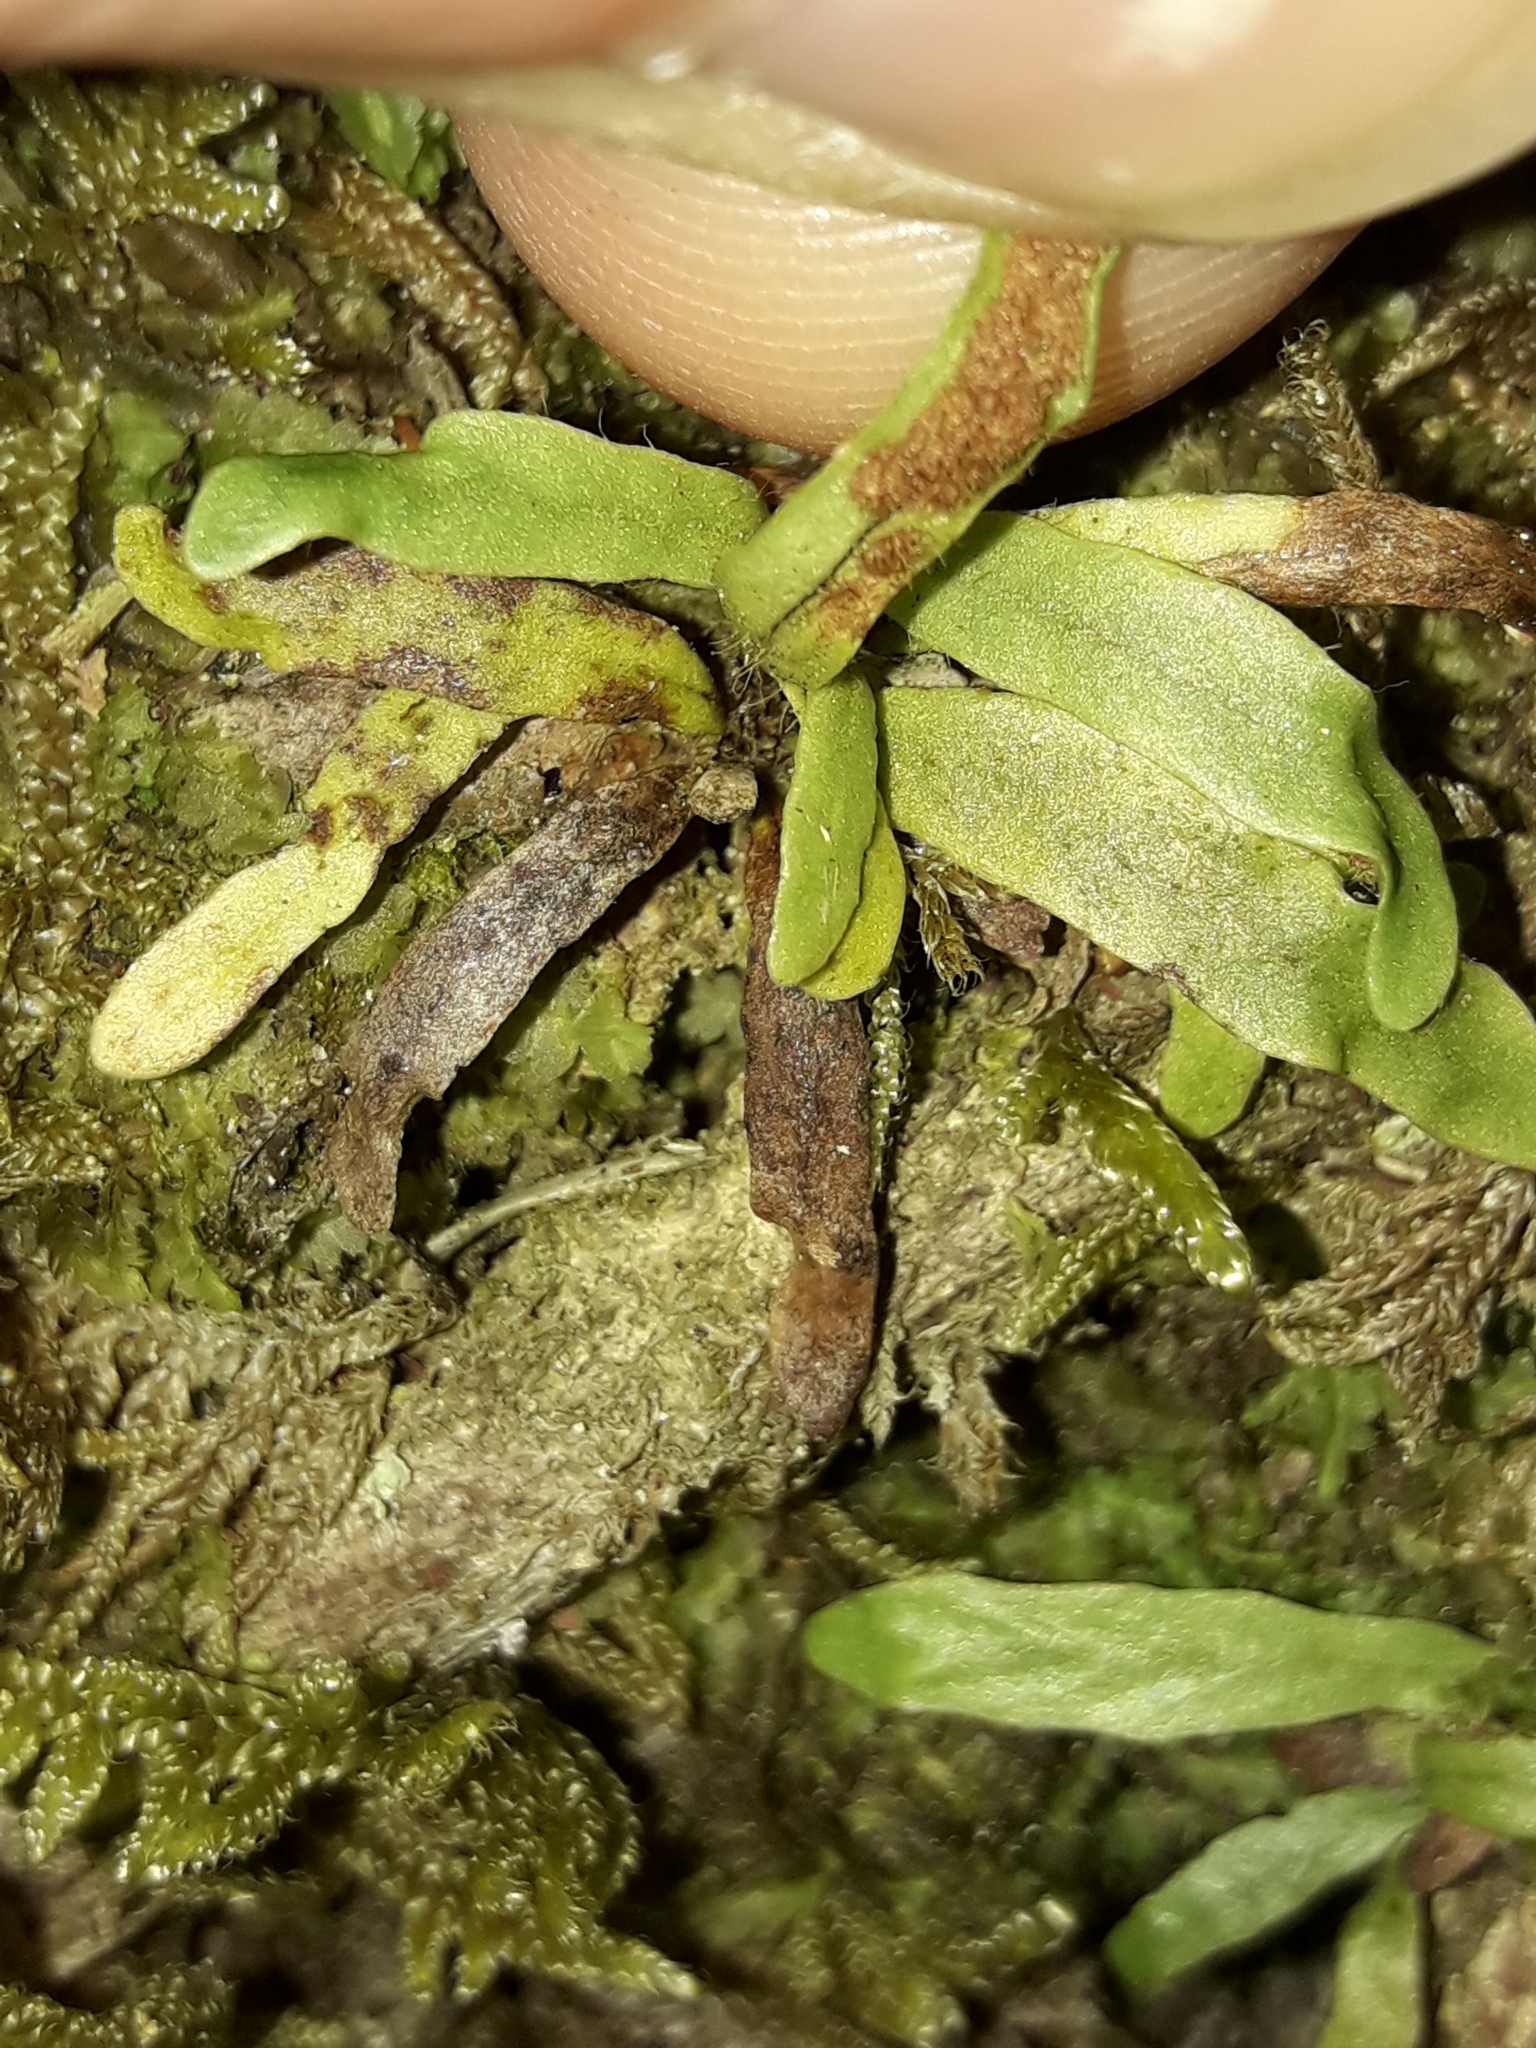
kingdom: Plantae
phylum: Tracheophyta
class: Polypodiopsida
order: Polypodiales
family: Polypodiaceae
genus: Notogrammitis
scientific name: Notogrammitis ciliata
